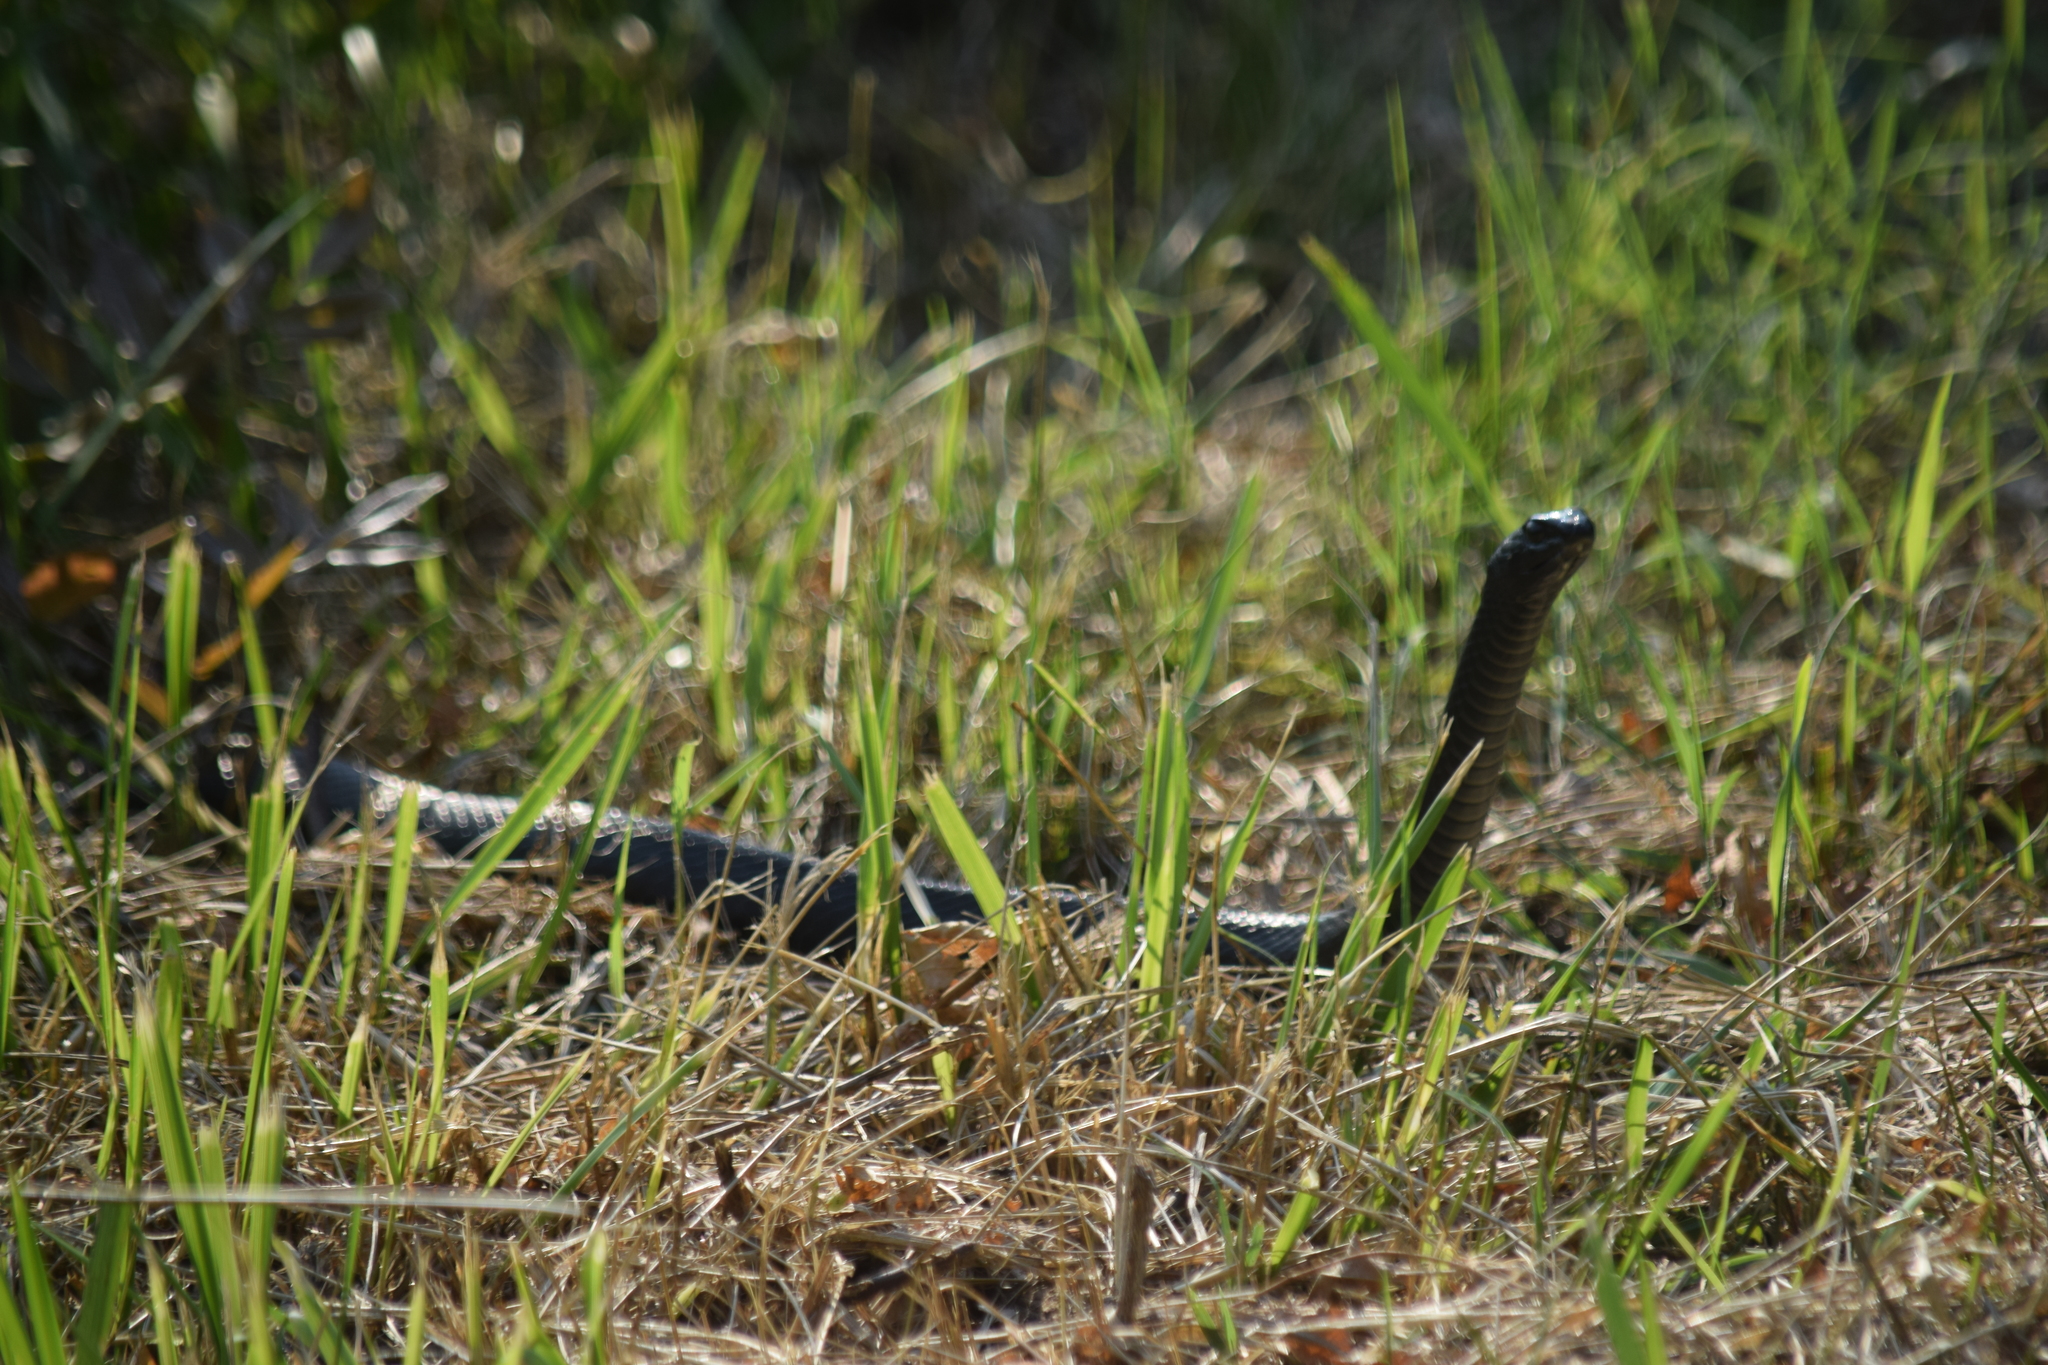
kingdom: Animalia
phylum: Chordata
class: Squamata
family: Colubridae
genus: Coluber
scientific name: Coluber constrictor
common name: Eastern racer
